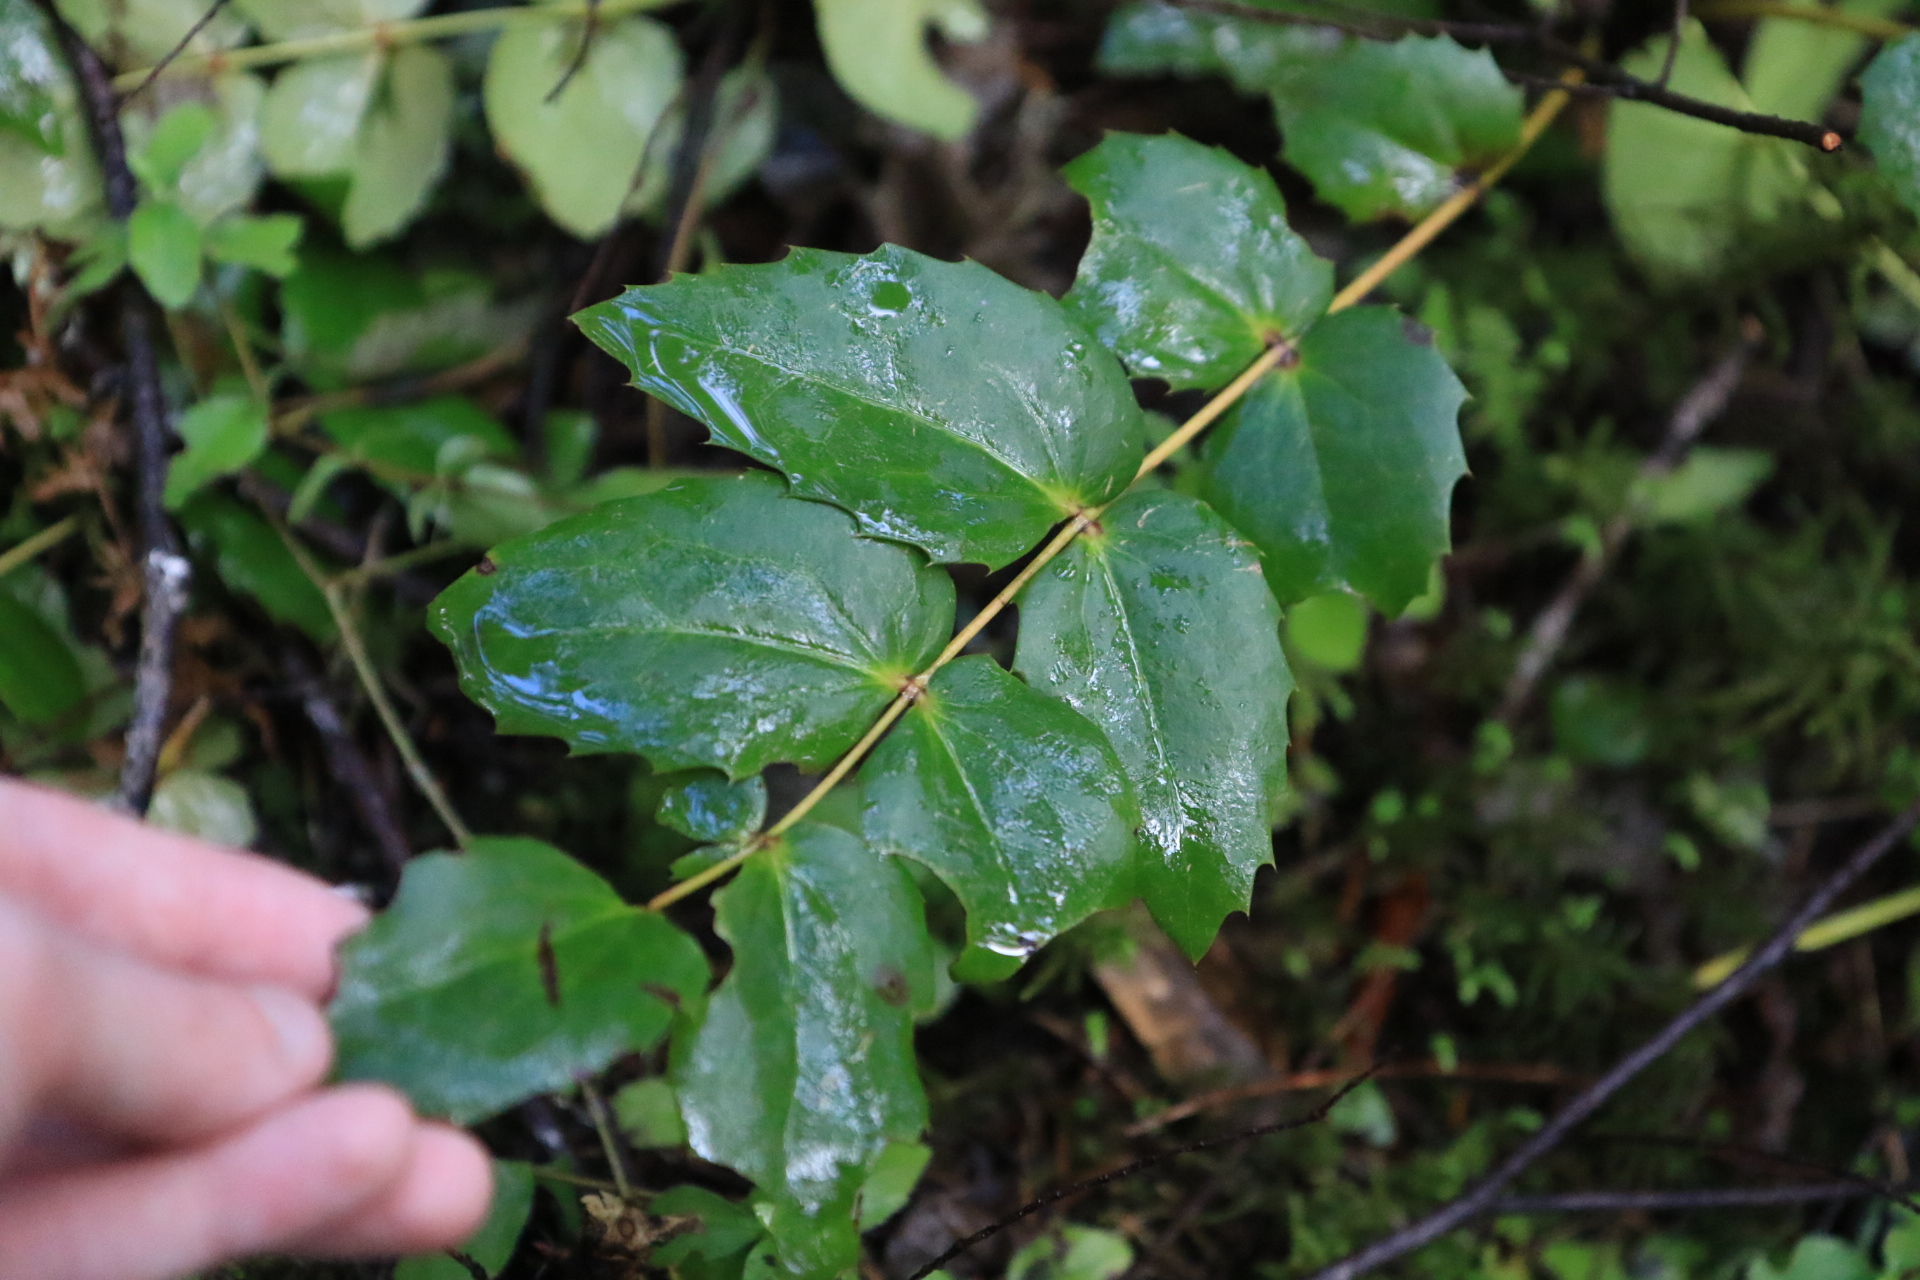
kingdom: Plantae
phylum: Tracheophyta
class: Magnoliopsida
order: Ranunculales
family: Berberidaceae
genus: Mahonia
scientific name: Mahonia nervosa
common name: Cascade oregon-grape
